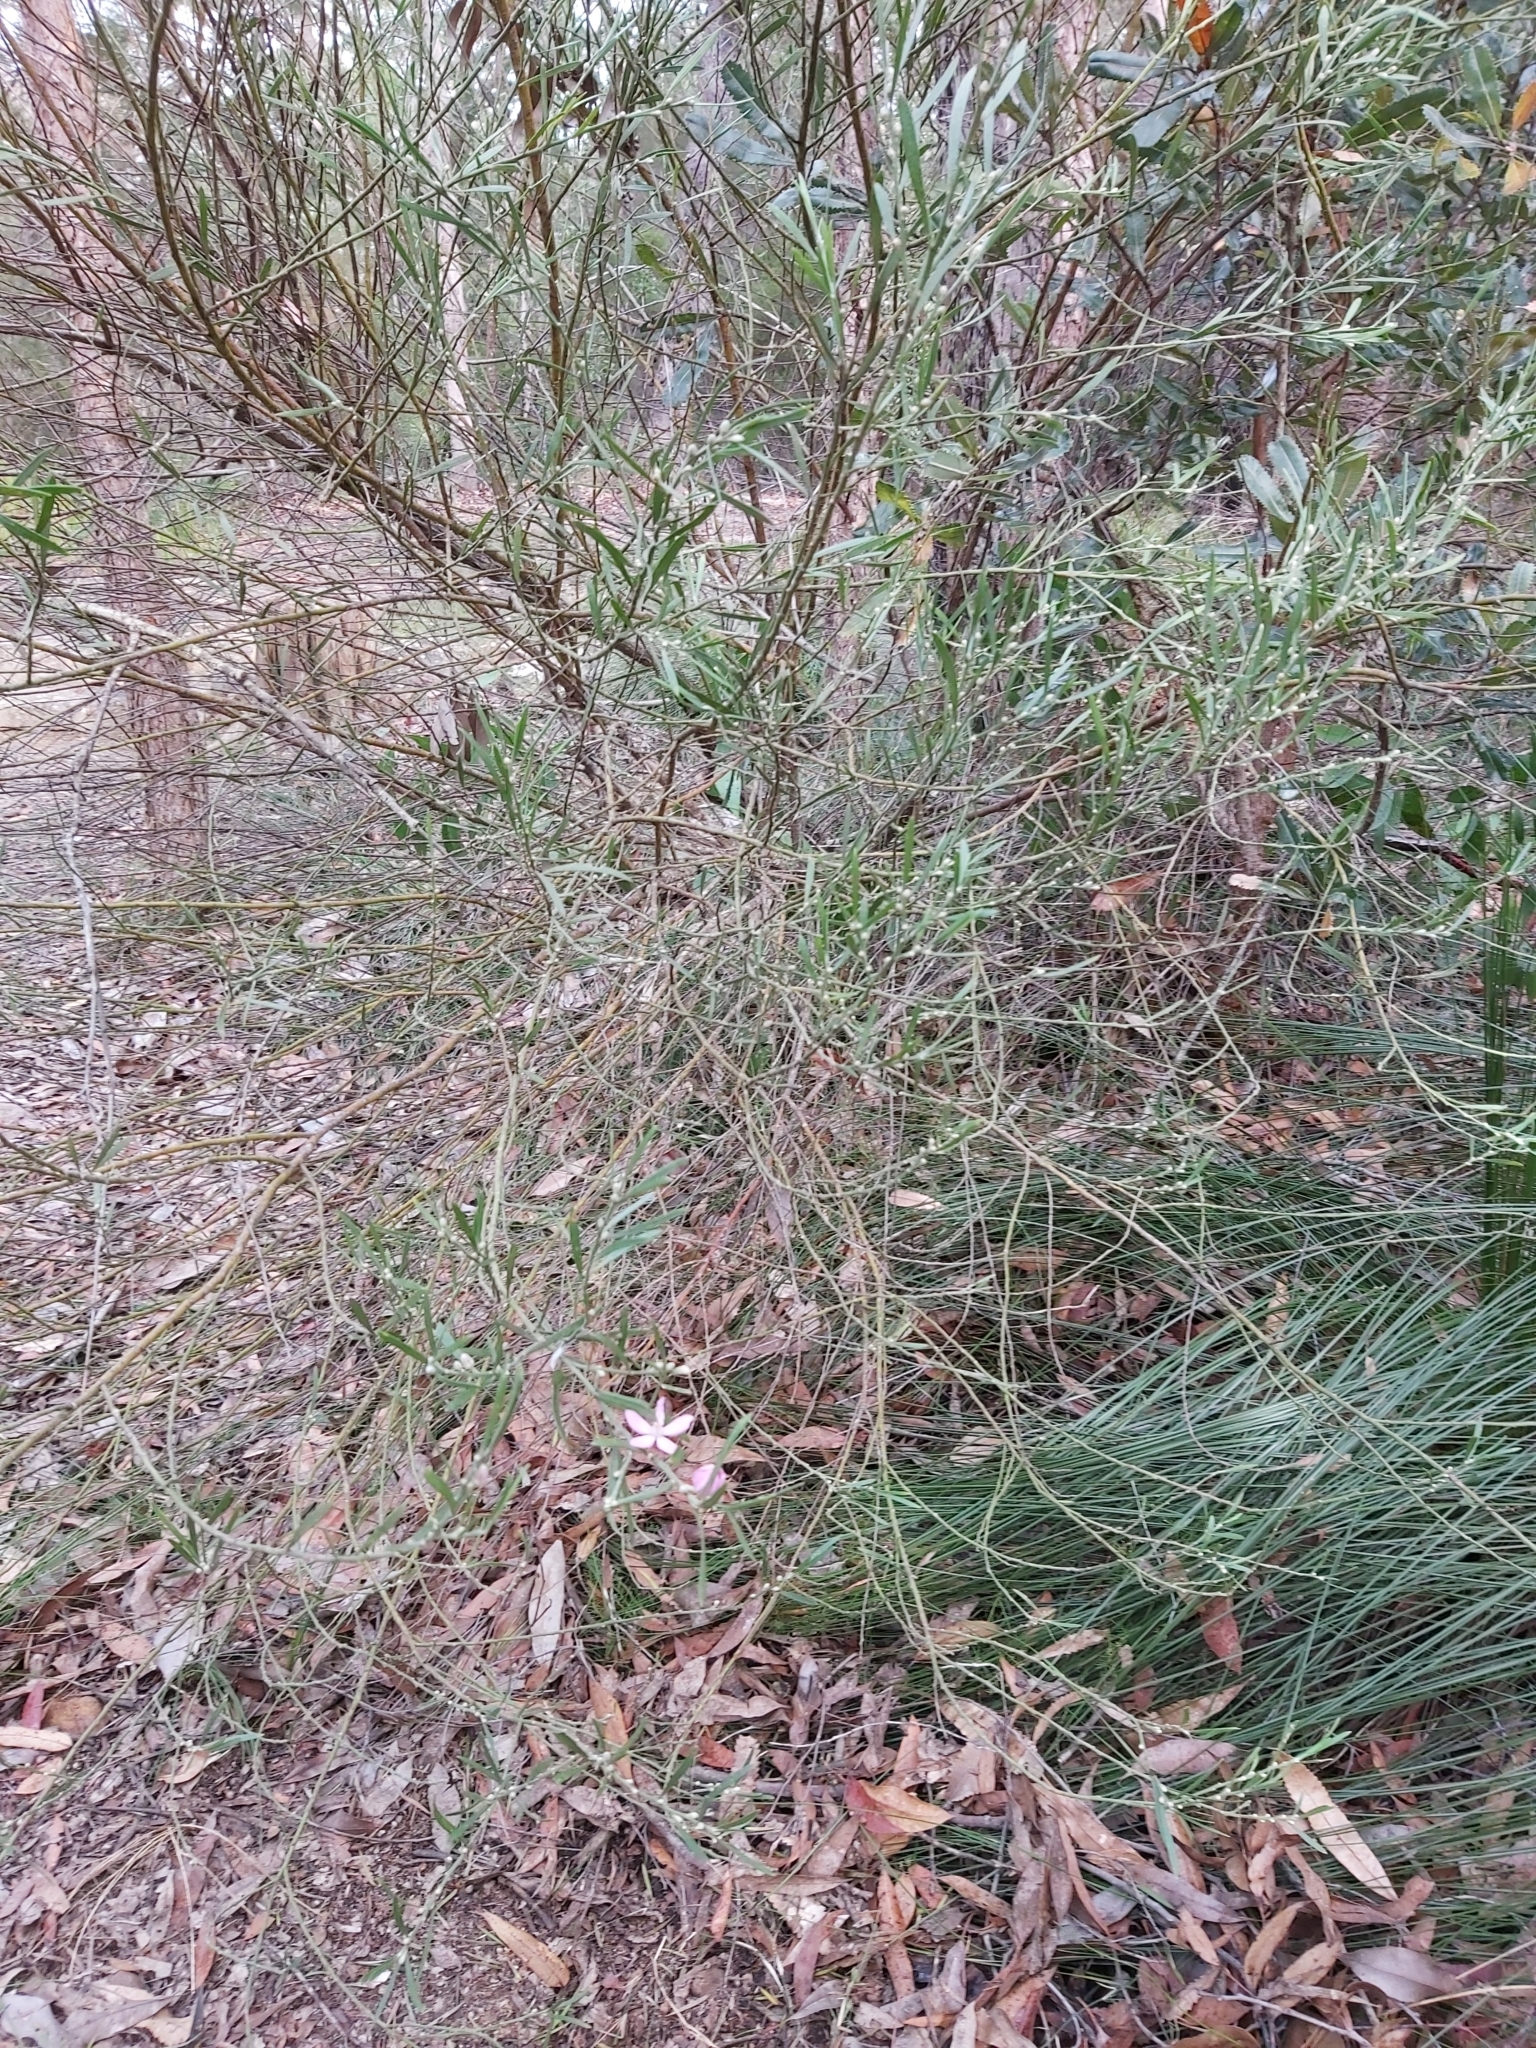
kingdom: Plantae
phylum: Tracheophyta
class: Magnoliopsida
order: Sapindales
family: Rutaceae
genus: Eriostemon
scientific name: Eriostemon australasius
